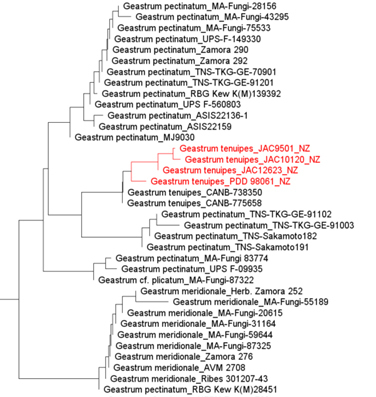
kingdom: Fungi
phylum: Basidiomycota
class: Agaricomycetes
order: Geastrales
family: Geastraceae
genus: Geastrum
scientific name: Geastrum pectinatum
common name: Beaked earthstar
